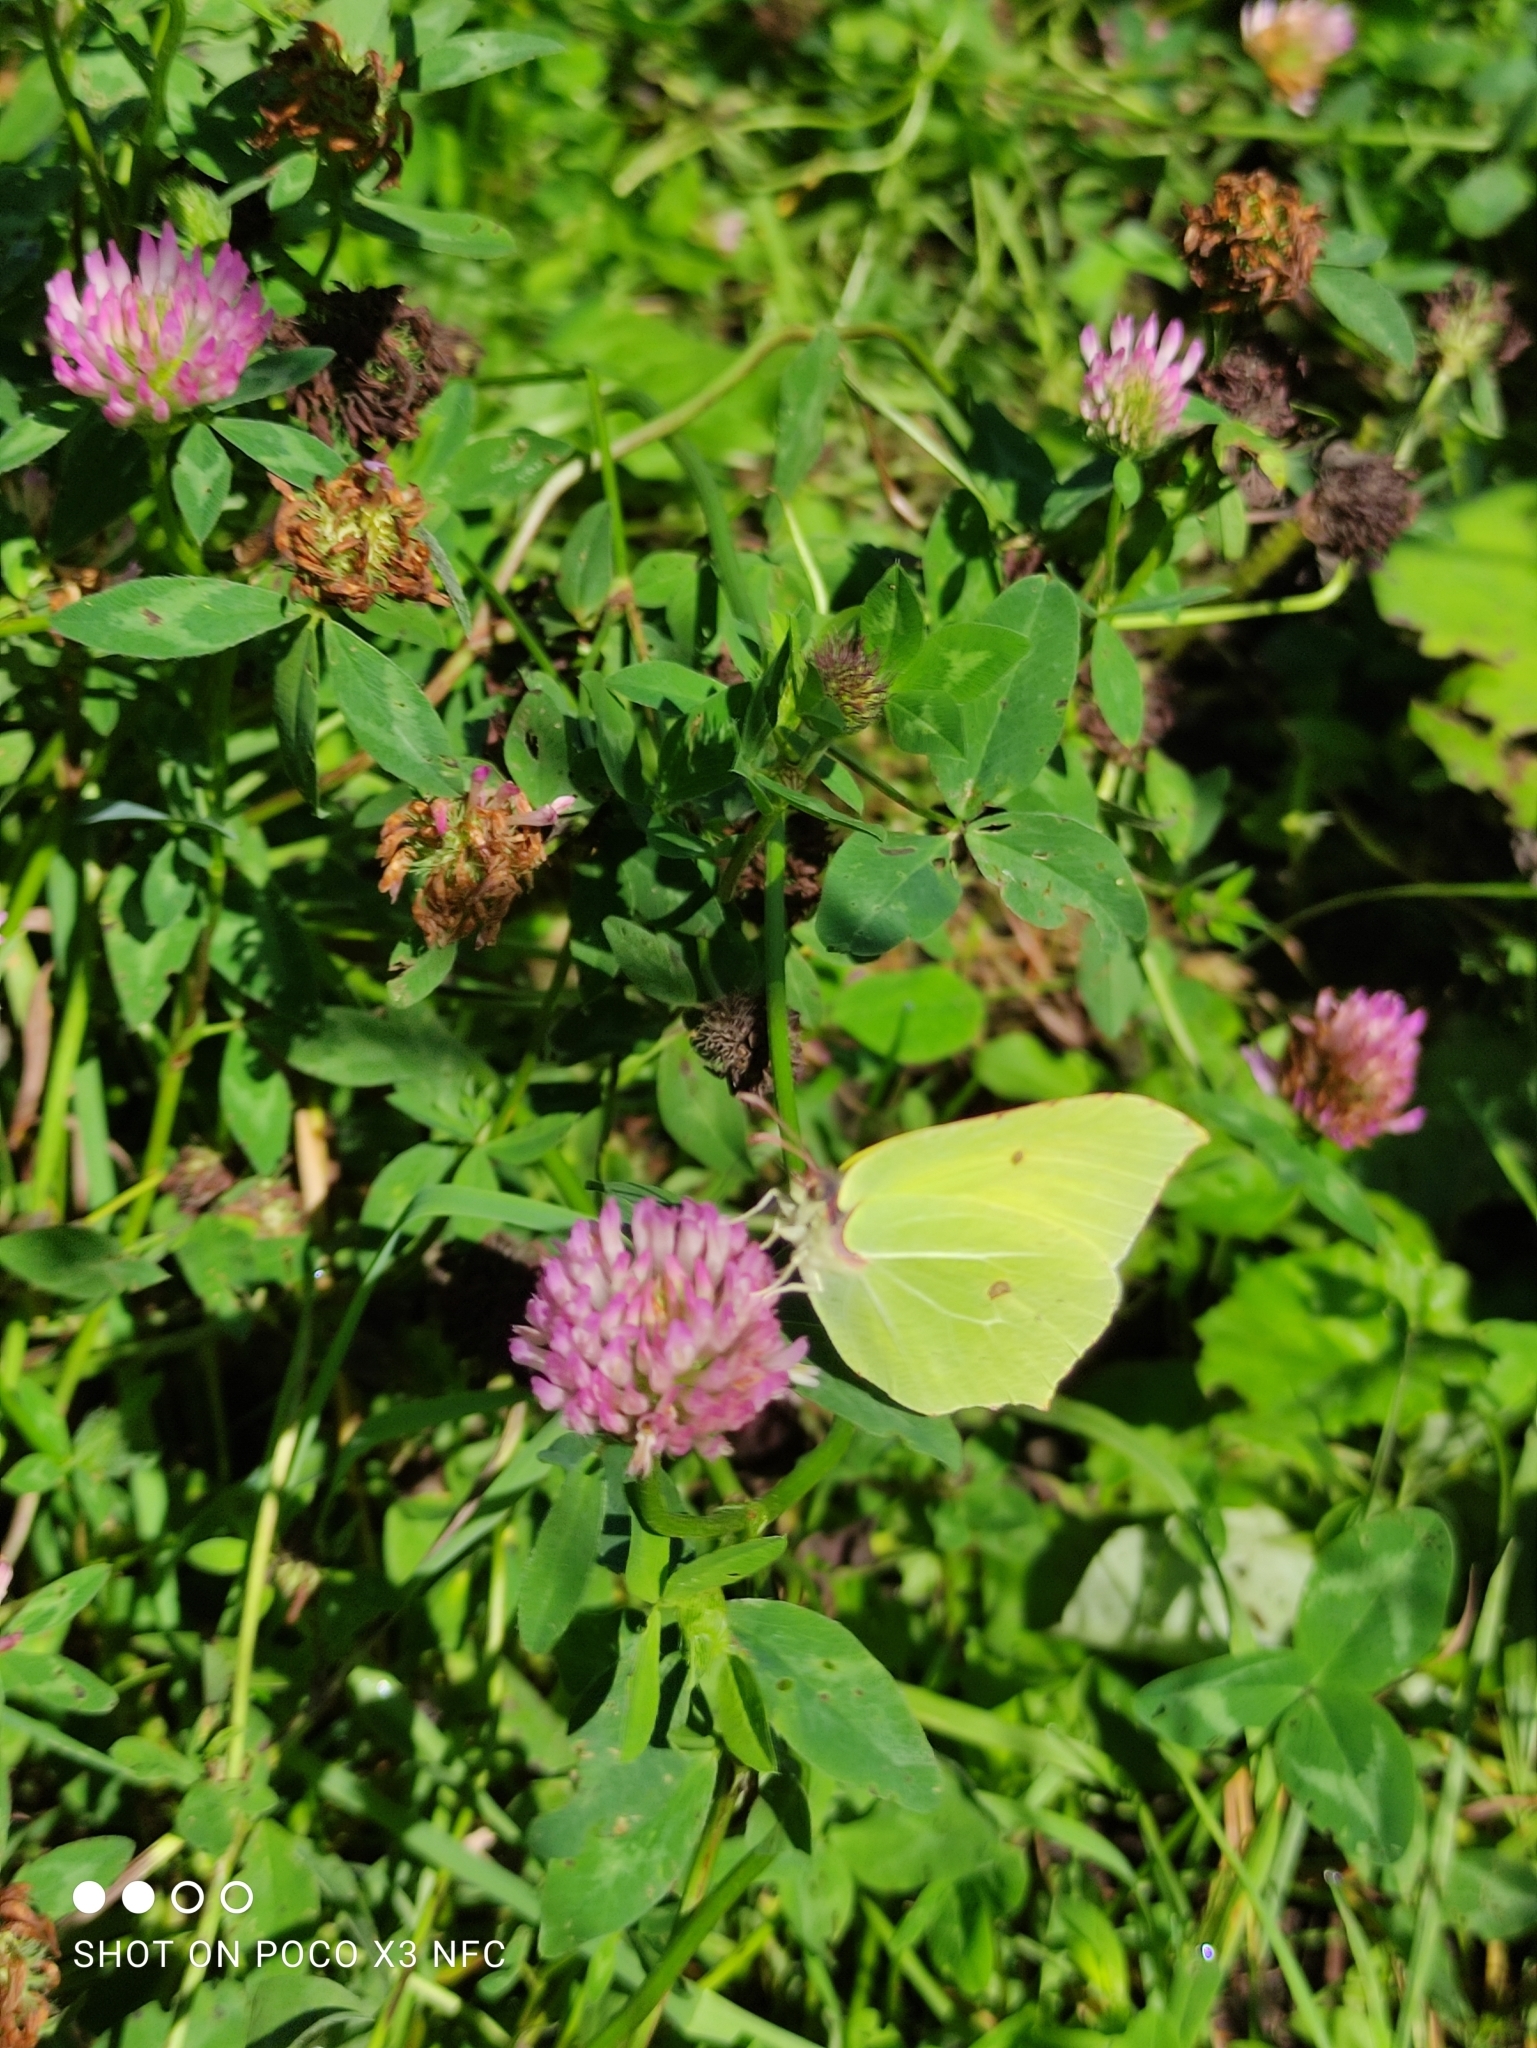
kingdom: Animalia
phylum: Arthropoda
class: Insecta
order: Lepidoptera
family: Pieridae
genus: Gonepteryx
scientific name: Gonepteryx rhamni
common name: Brimstone
